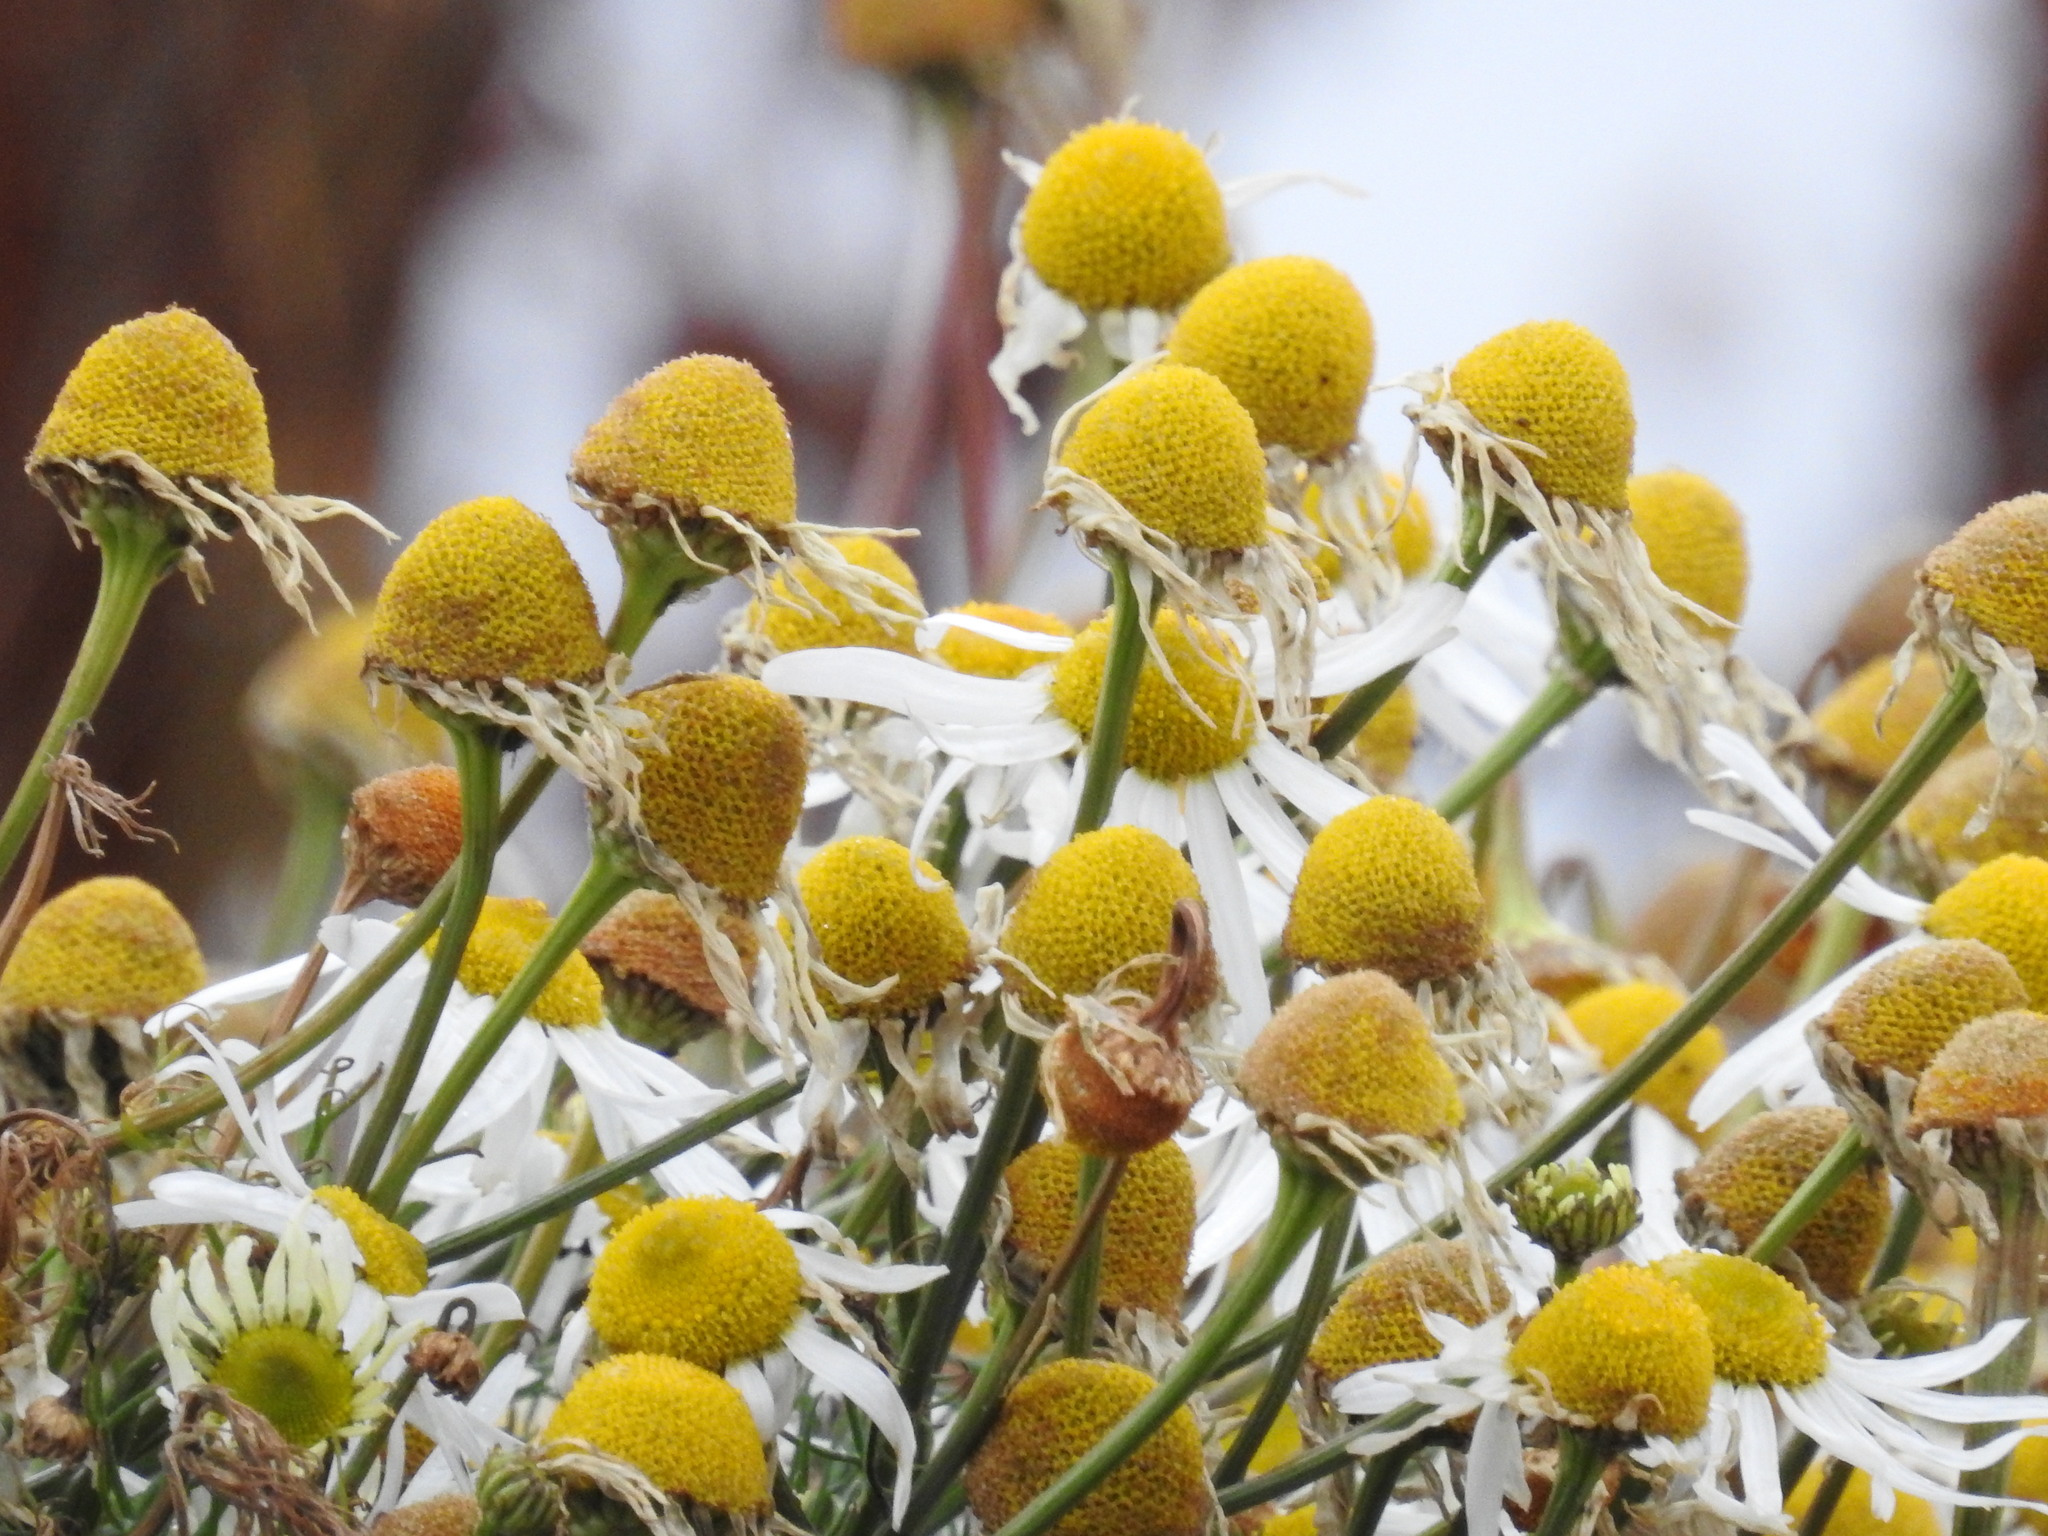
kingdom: Plantae
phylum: Tracheophyta
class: Magnoliopsida
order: Asterales
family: Asteraceae
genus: Tripleurospermum
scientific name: Tripleurospermum inodorum
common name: Scentless mayweed
